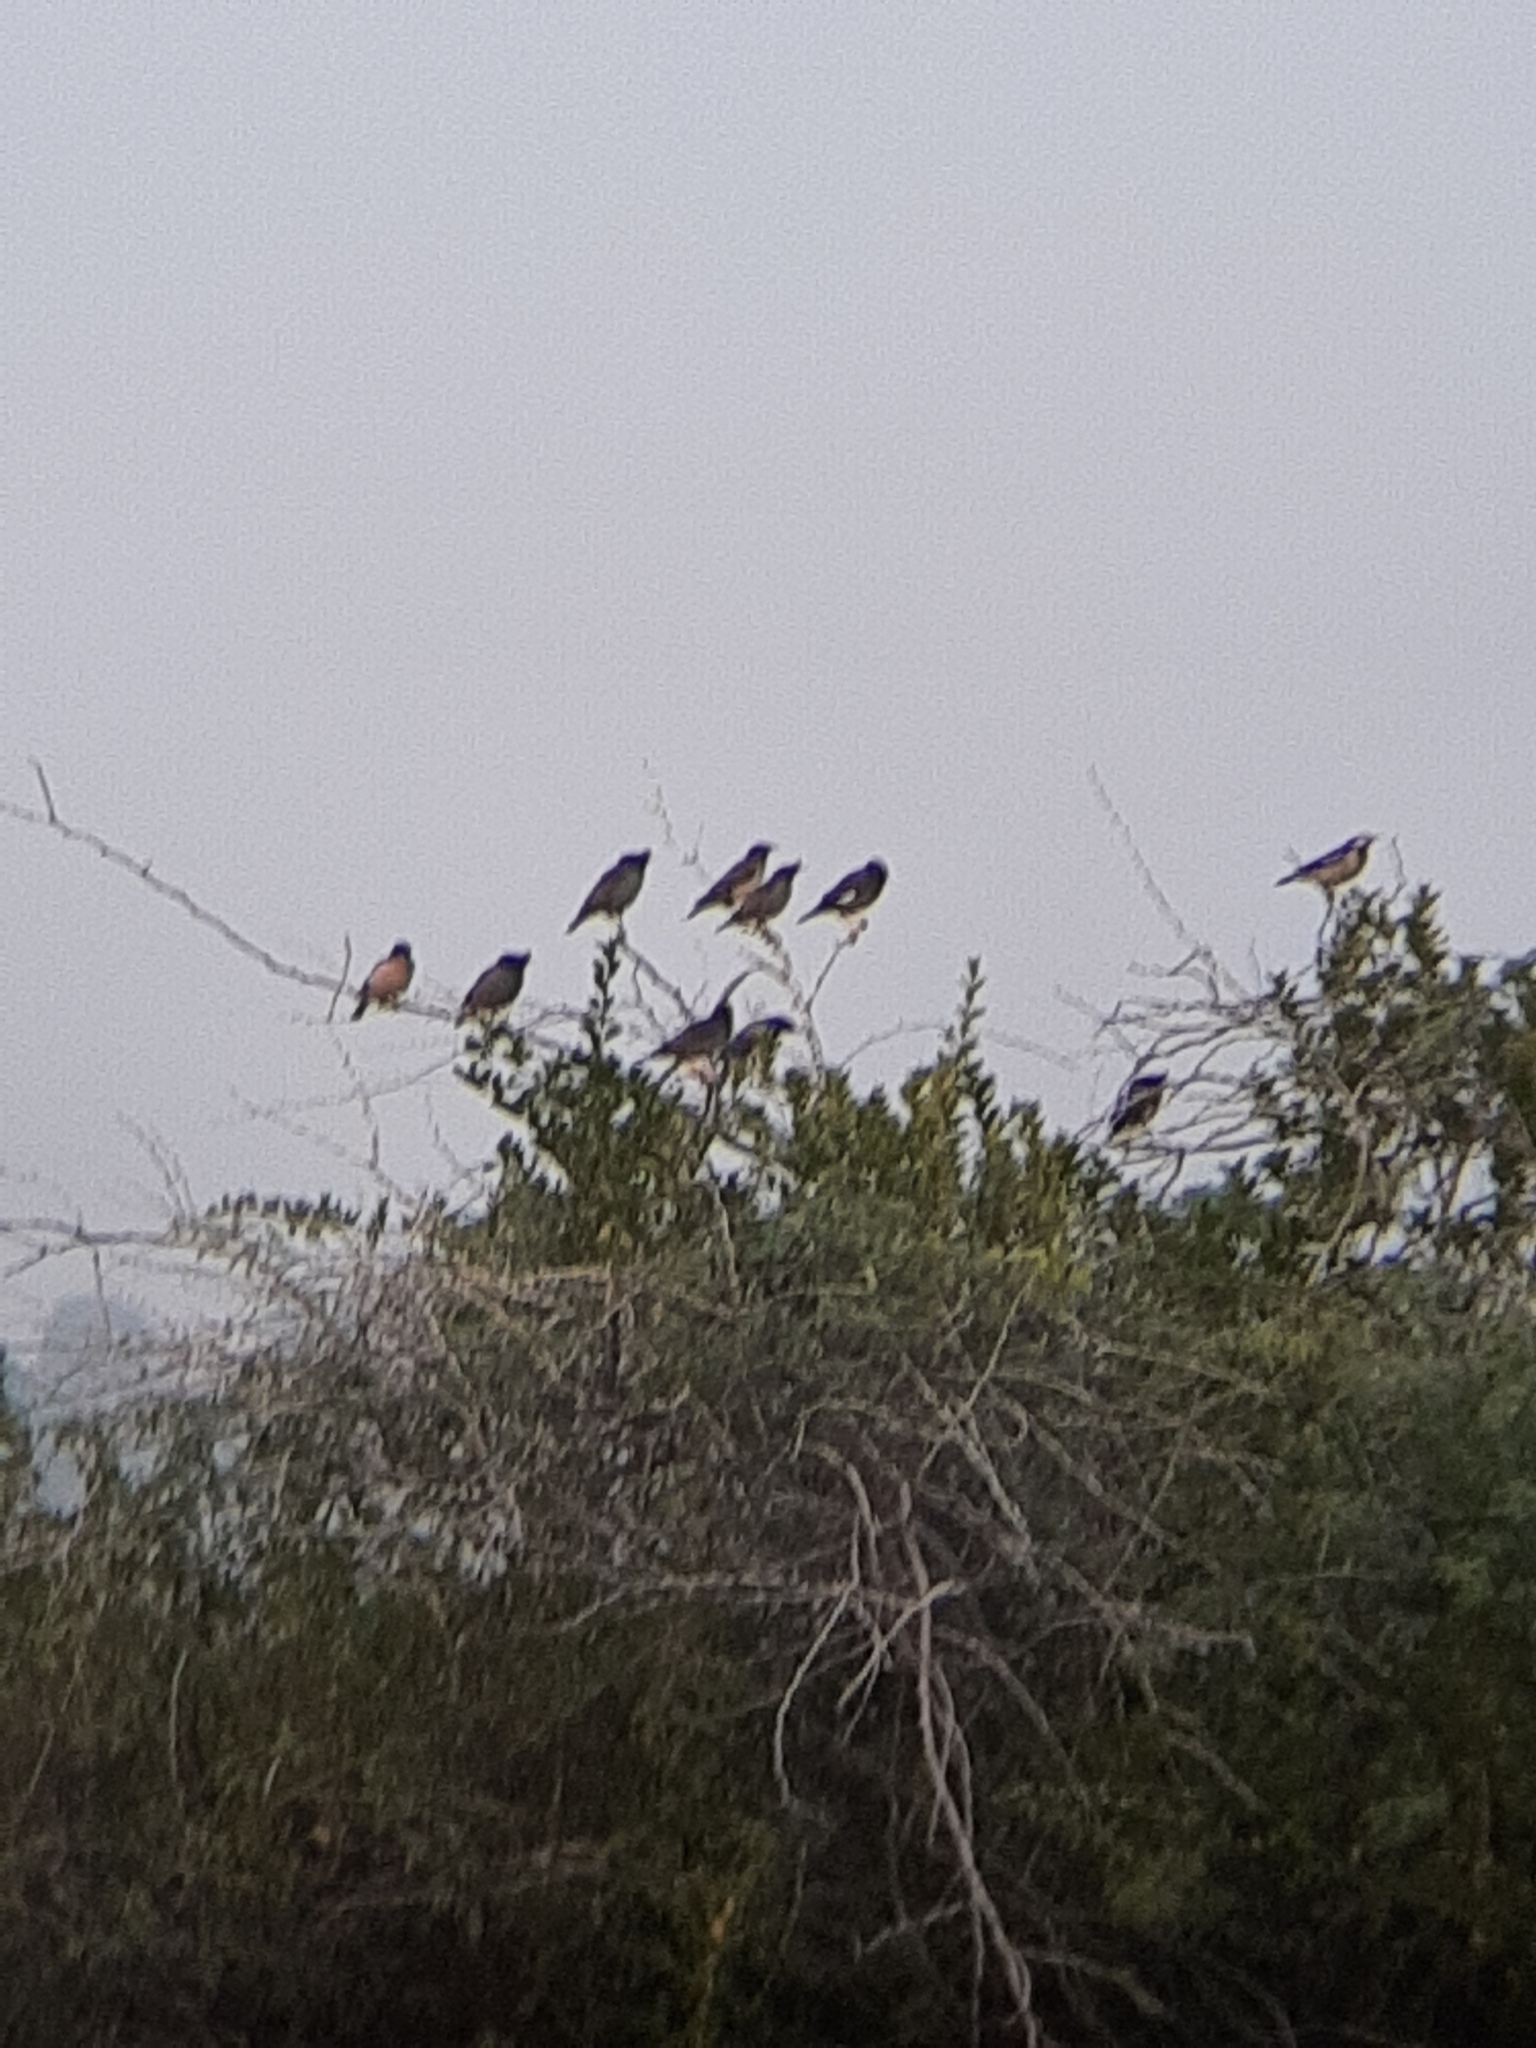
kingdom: Animalia
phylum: Chordata
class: Aves
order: Passeriformes
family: Sturnidae
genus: Acridotheres
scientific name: Acridotheres fuscus
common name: Jungle myna
